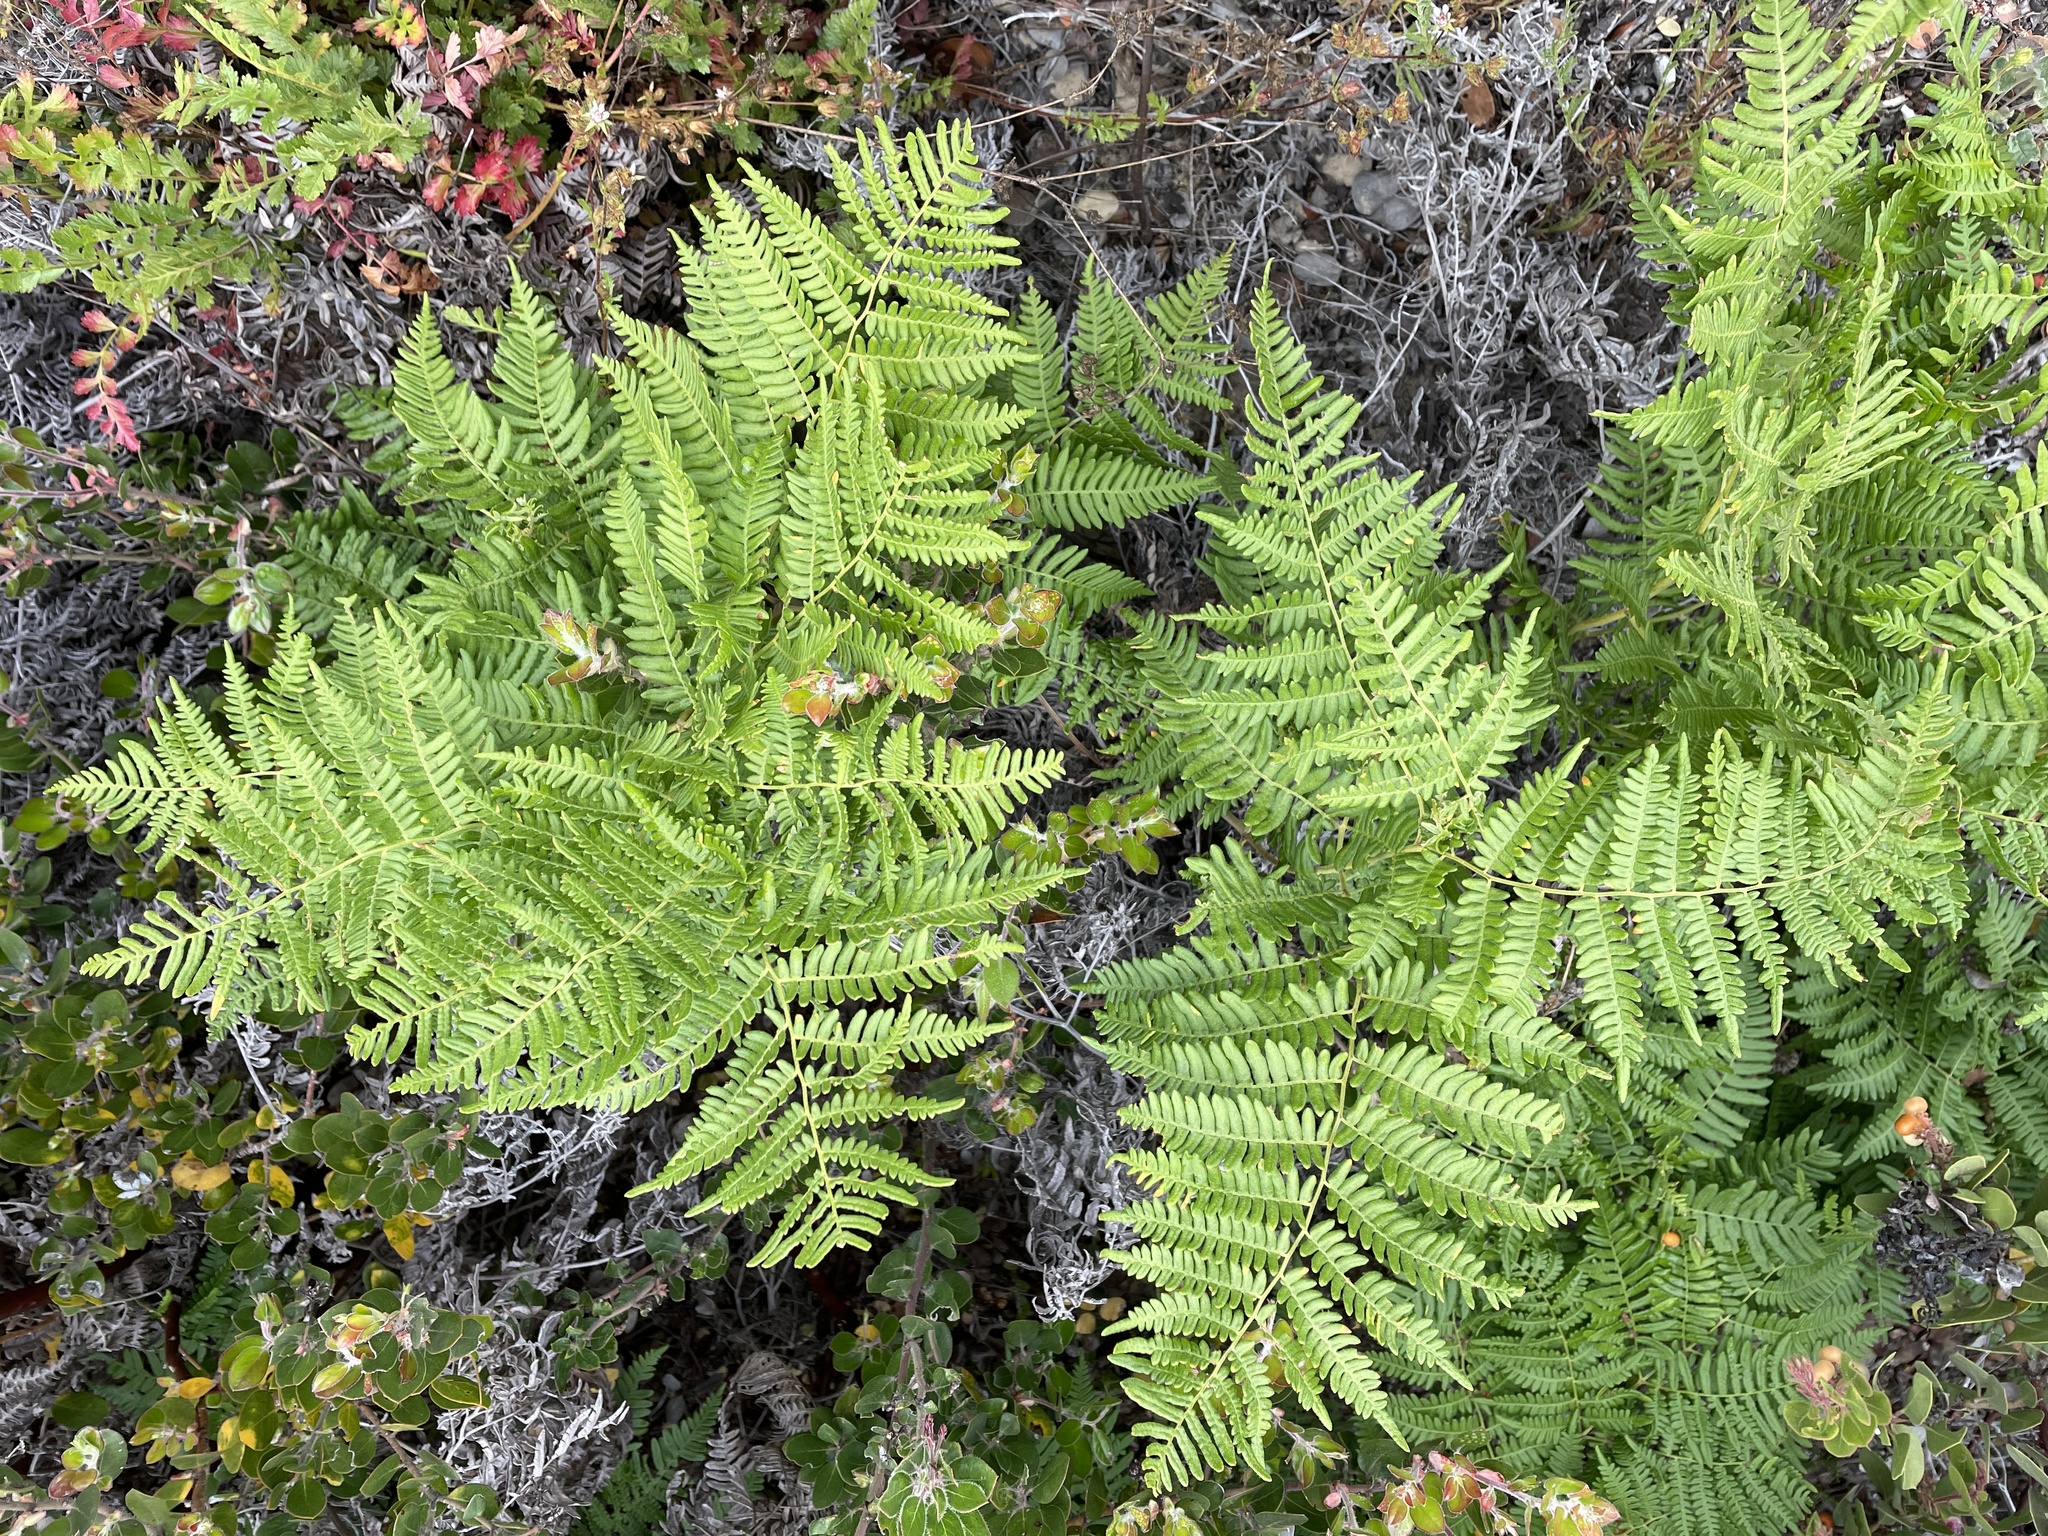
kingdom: Plantae
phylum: Tracheophyta
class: Polypodiopsida
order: Polypodiales
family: Dennstaedtiaceae
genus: Pteridium
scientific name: Pteridium aquilinum
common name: Bracken
